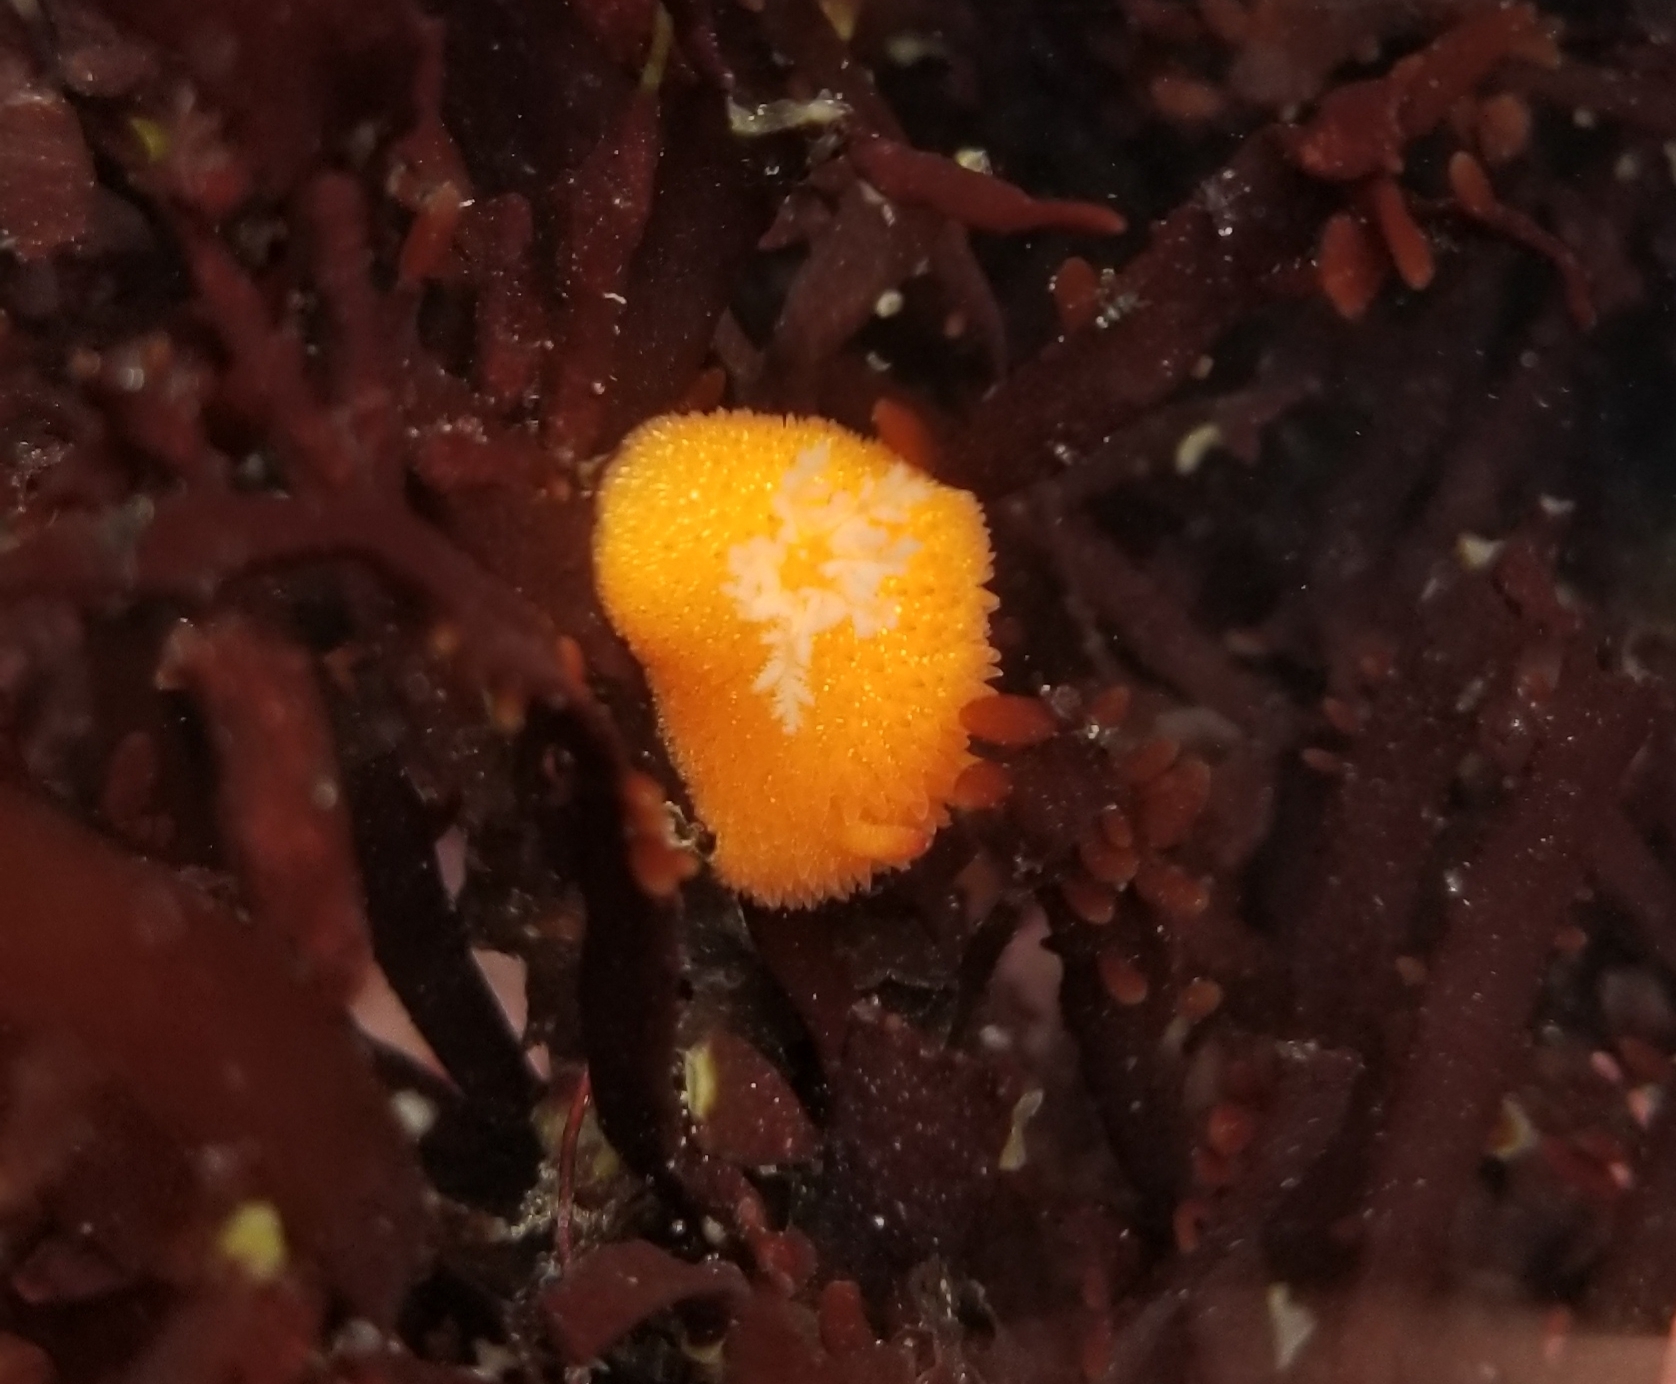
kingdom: Animalia
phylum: Mollusca
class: Gastropoda
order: Nudibranchia
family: Onchidorididae
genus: Acanthodoris
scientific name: Acanthodoris lutea
